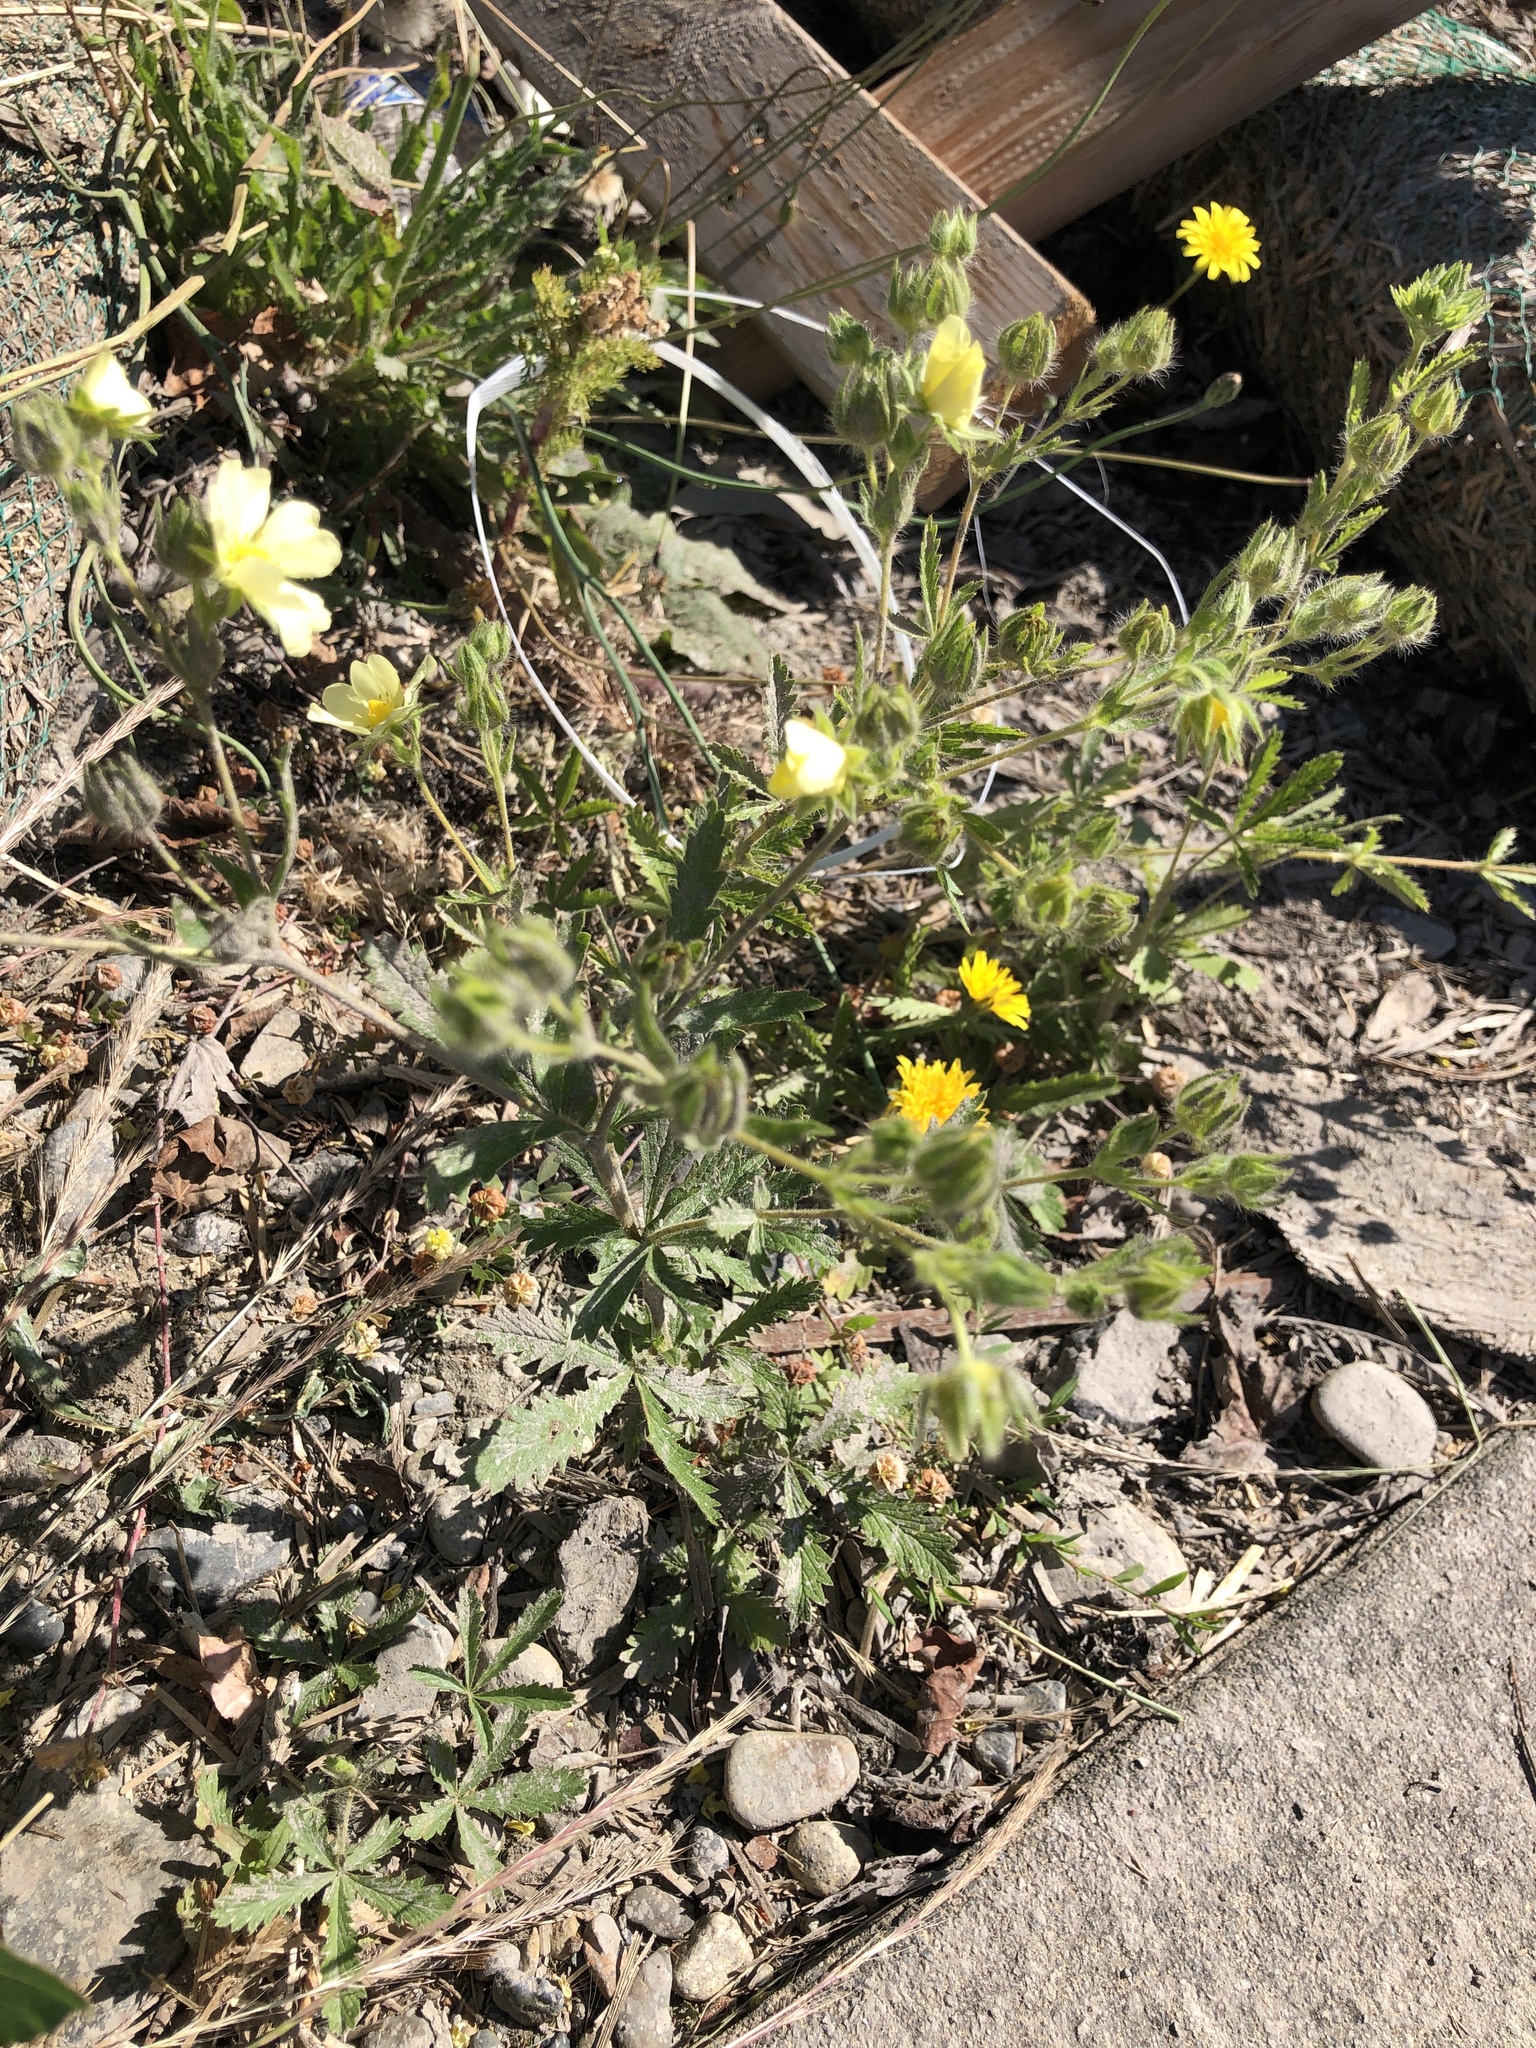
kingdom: Plantae
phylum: Tracheophyta
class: Magnoliopsida
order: Rosales
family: Rosaceae
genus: Potentilla
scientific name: Potentilla recta
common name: Sulphur cinquefoil
